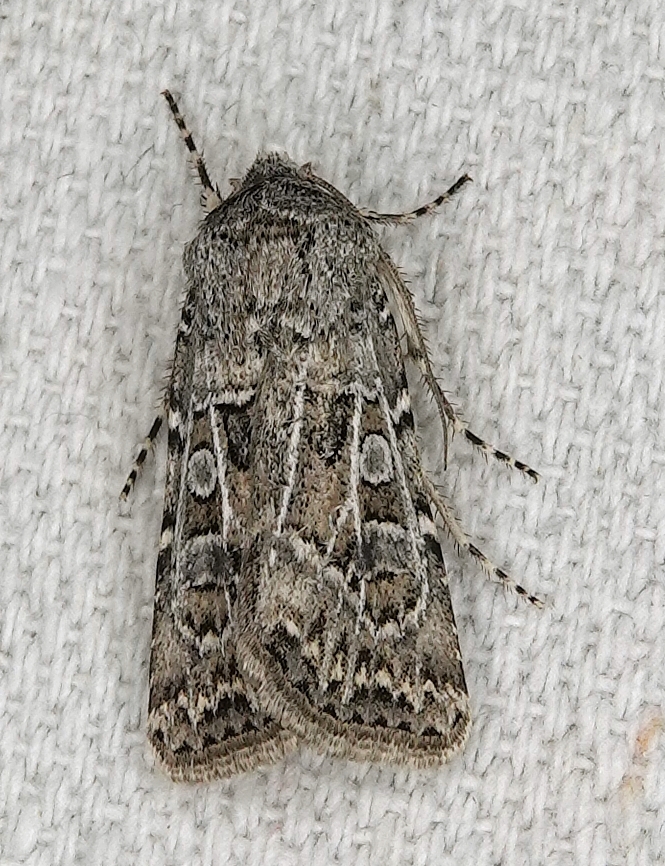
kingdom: Animalia
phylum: Arthropoda
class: Insecta
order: Lepidoptera
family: Noctuidae
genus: Agrotis
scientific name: Agrotis orthogonia
